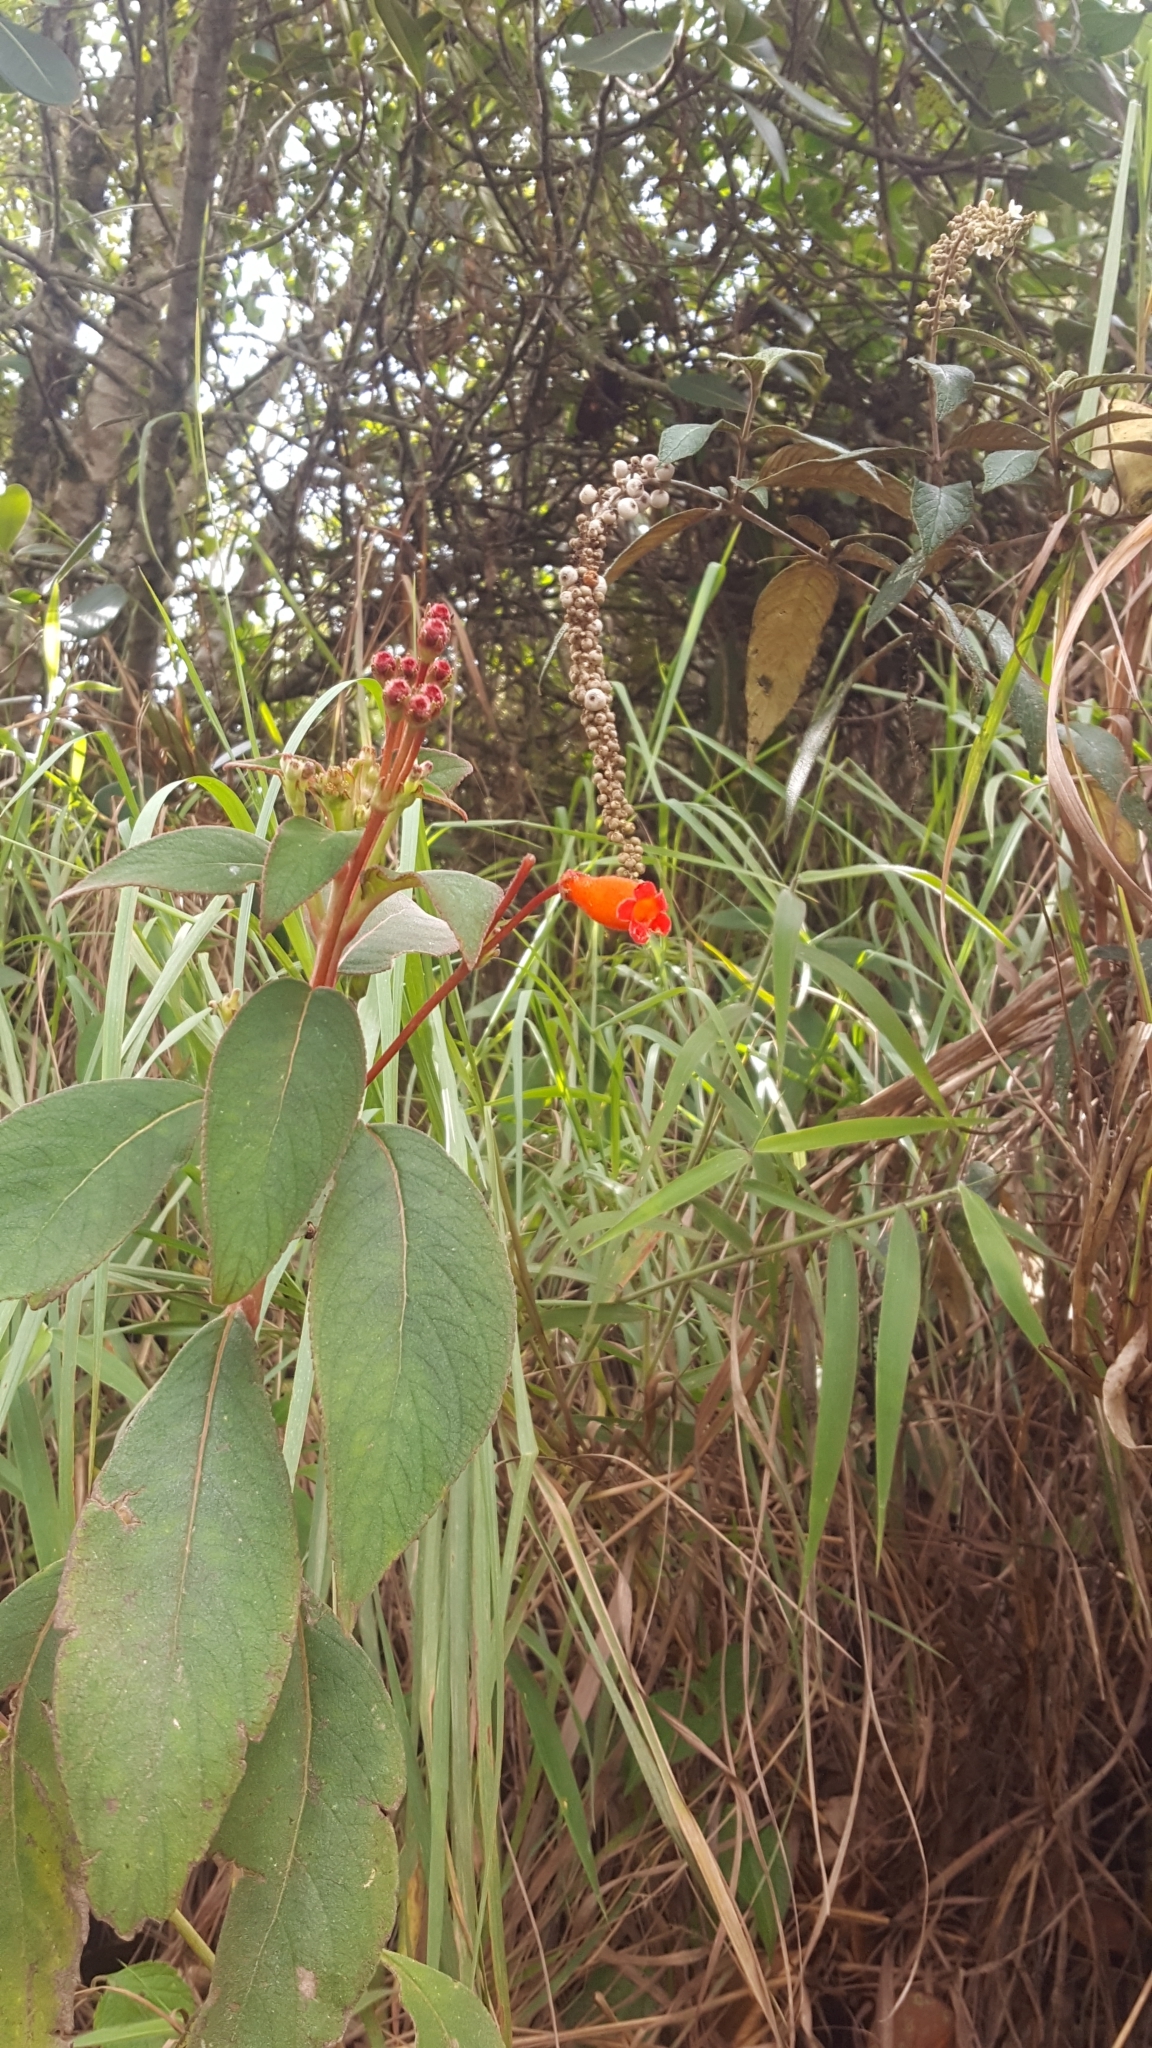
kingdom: Plantae
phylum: Tracheophyta
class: Magnoliopsida
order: Lamiales
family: Gesneriaceae
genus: Kohleria
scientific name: Kohleria trianae
